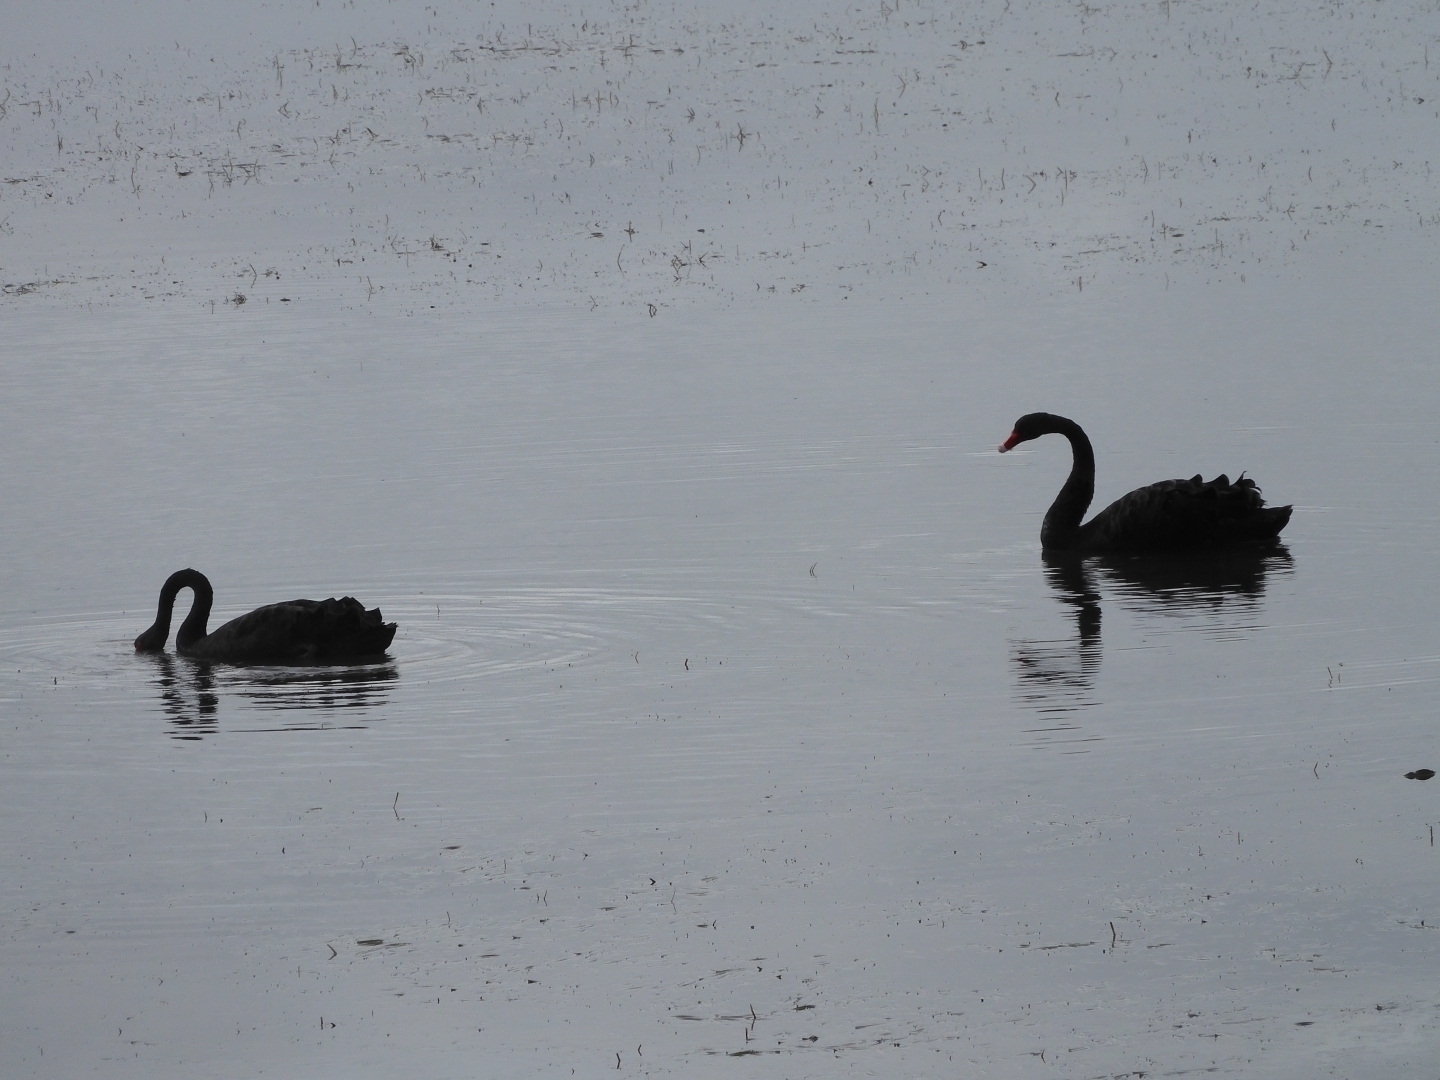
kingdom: Animalia
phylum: Chordata
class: Aves
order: Anseriformes
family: Anatidae
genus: Cygnus
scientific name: Cygnus atratus
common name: Black swan
